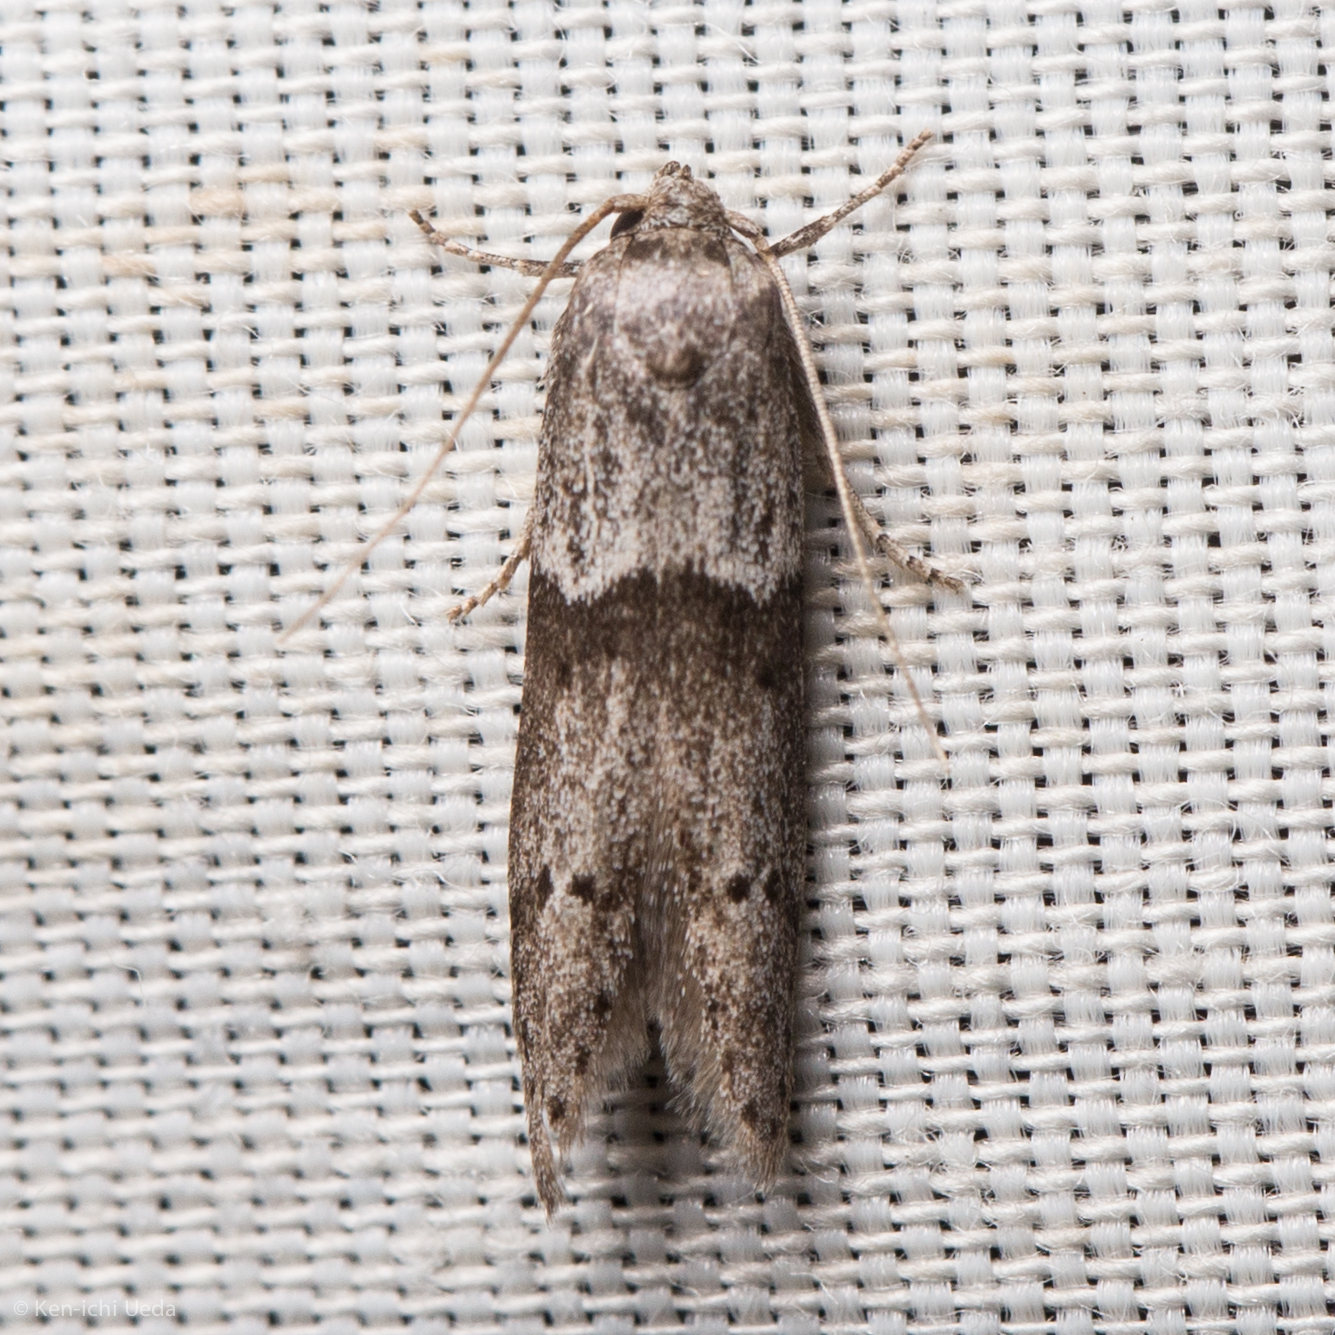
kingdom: Animalia
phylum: Arthropoda
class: Insecta
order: Lepidoptera
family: Blastobasidae
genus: Blastobasis
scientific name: Blastobasis glandulella
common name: Acorn moth
